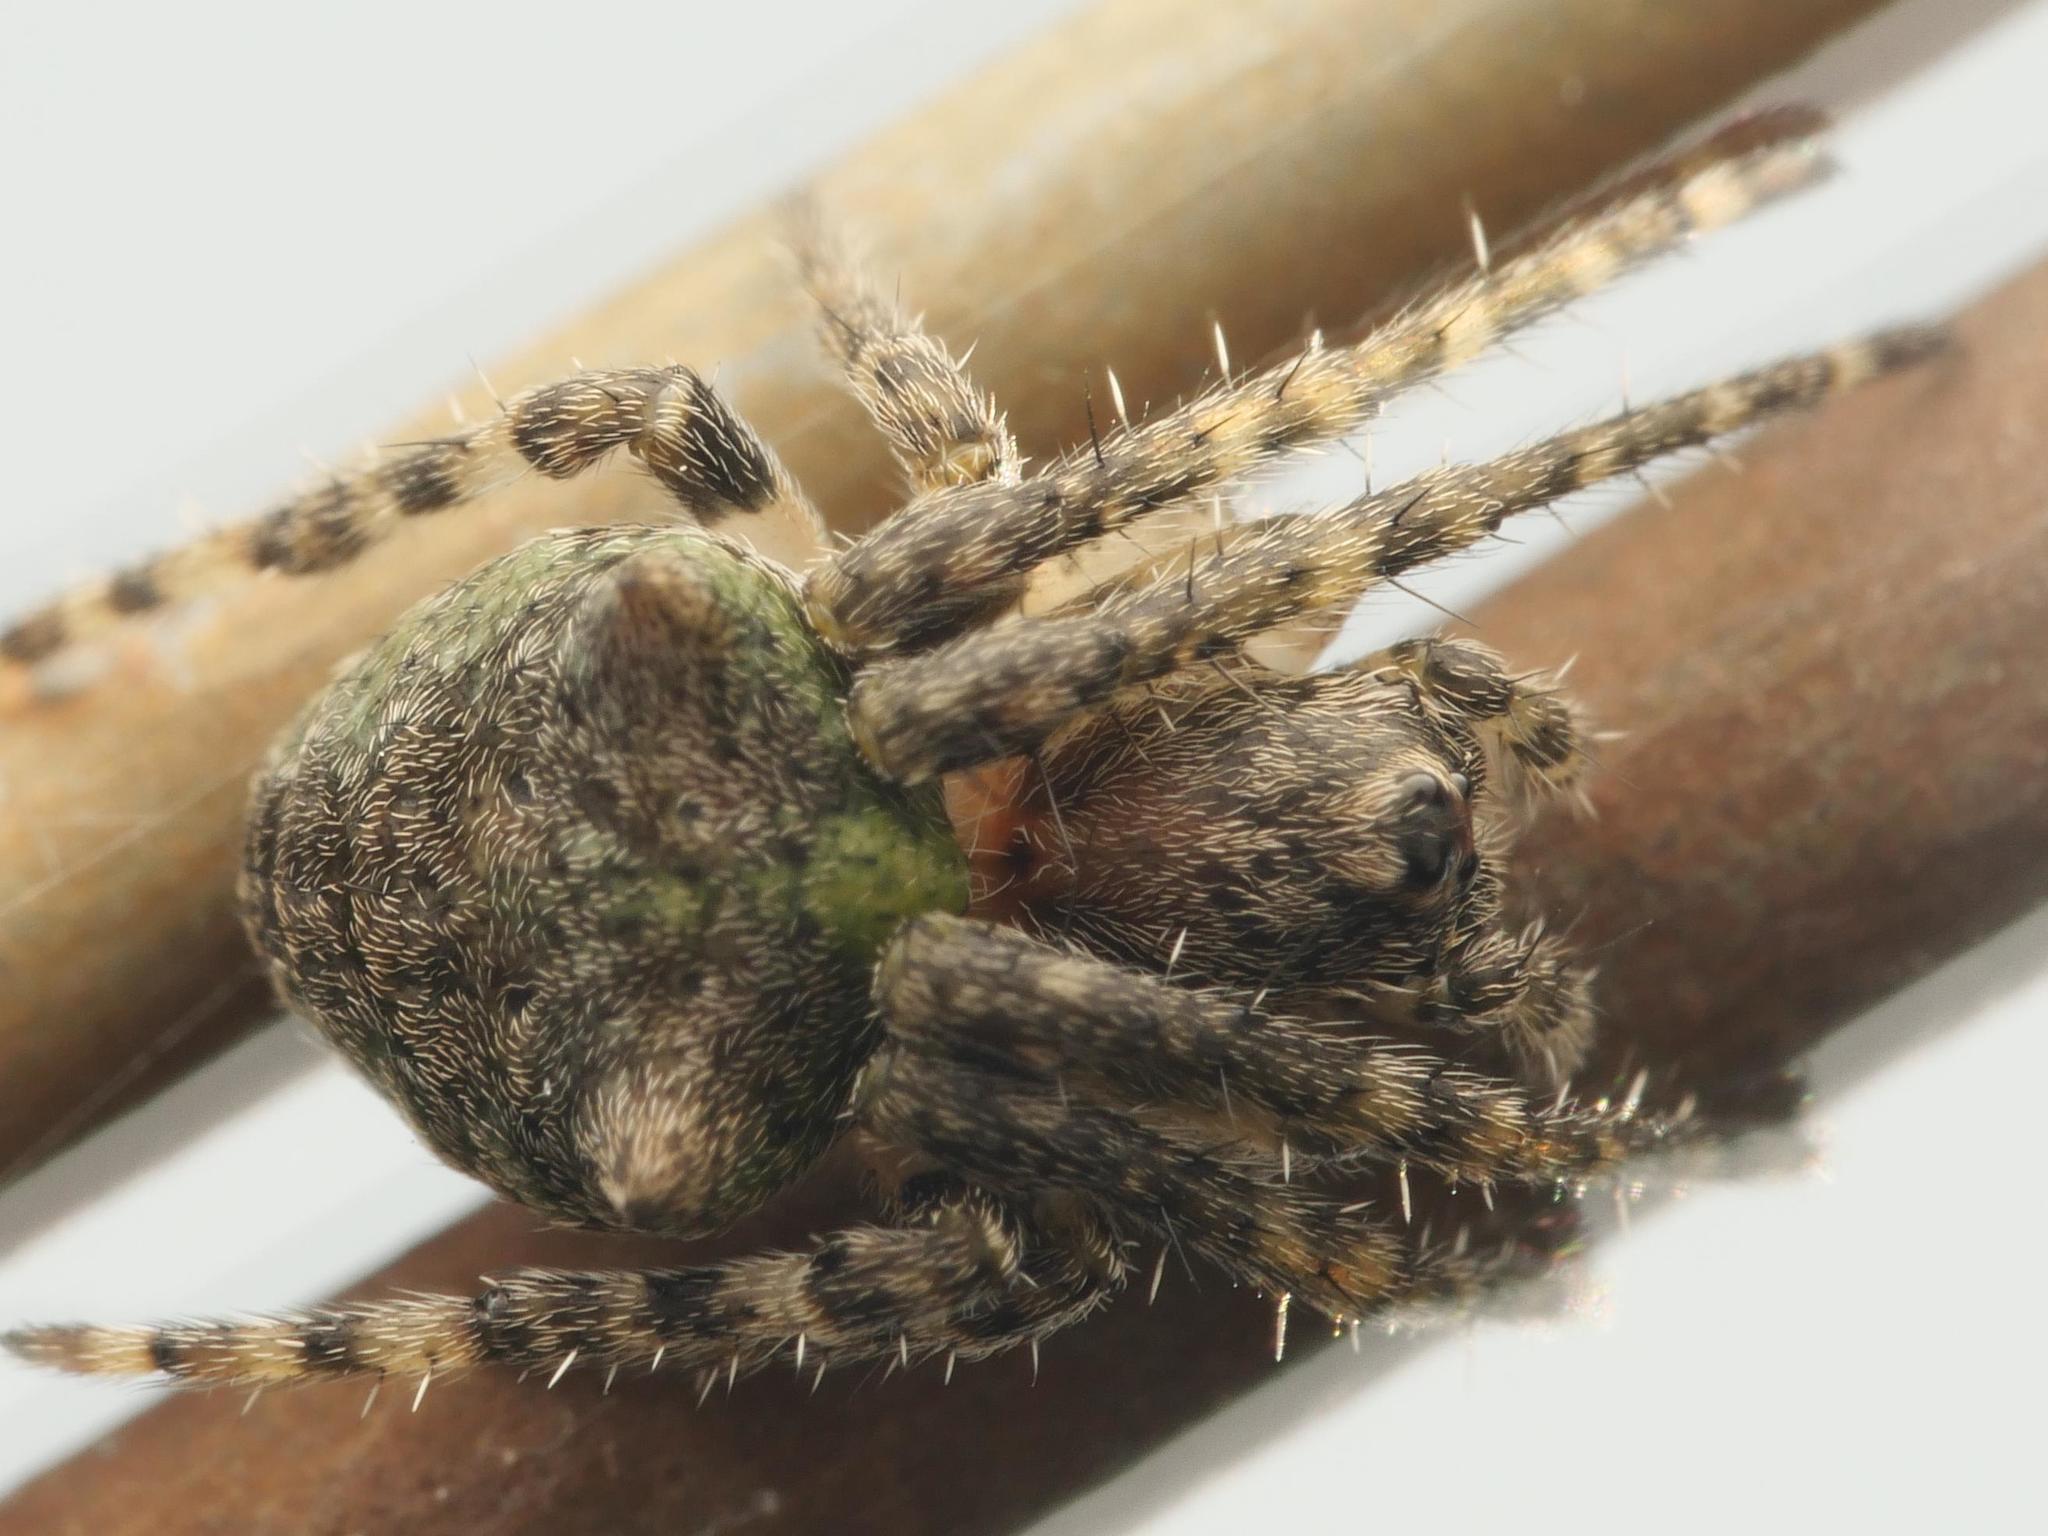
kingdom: Animalia
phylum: Arthropoda
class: Arachnida
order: Araneae
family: Araneidae
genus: Gibbaranea
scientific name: Gibbaranea gibbosa
